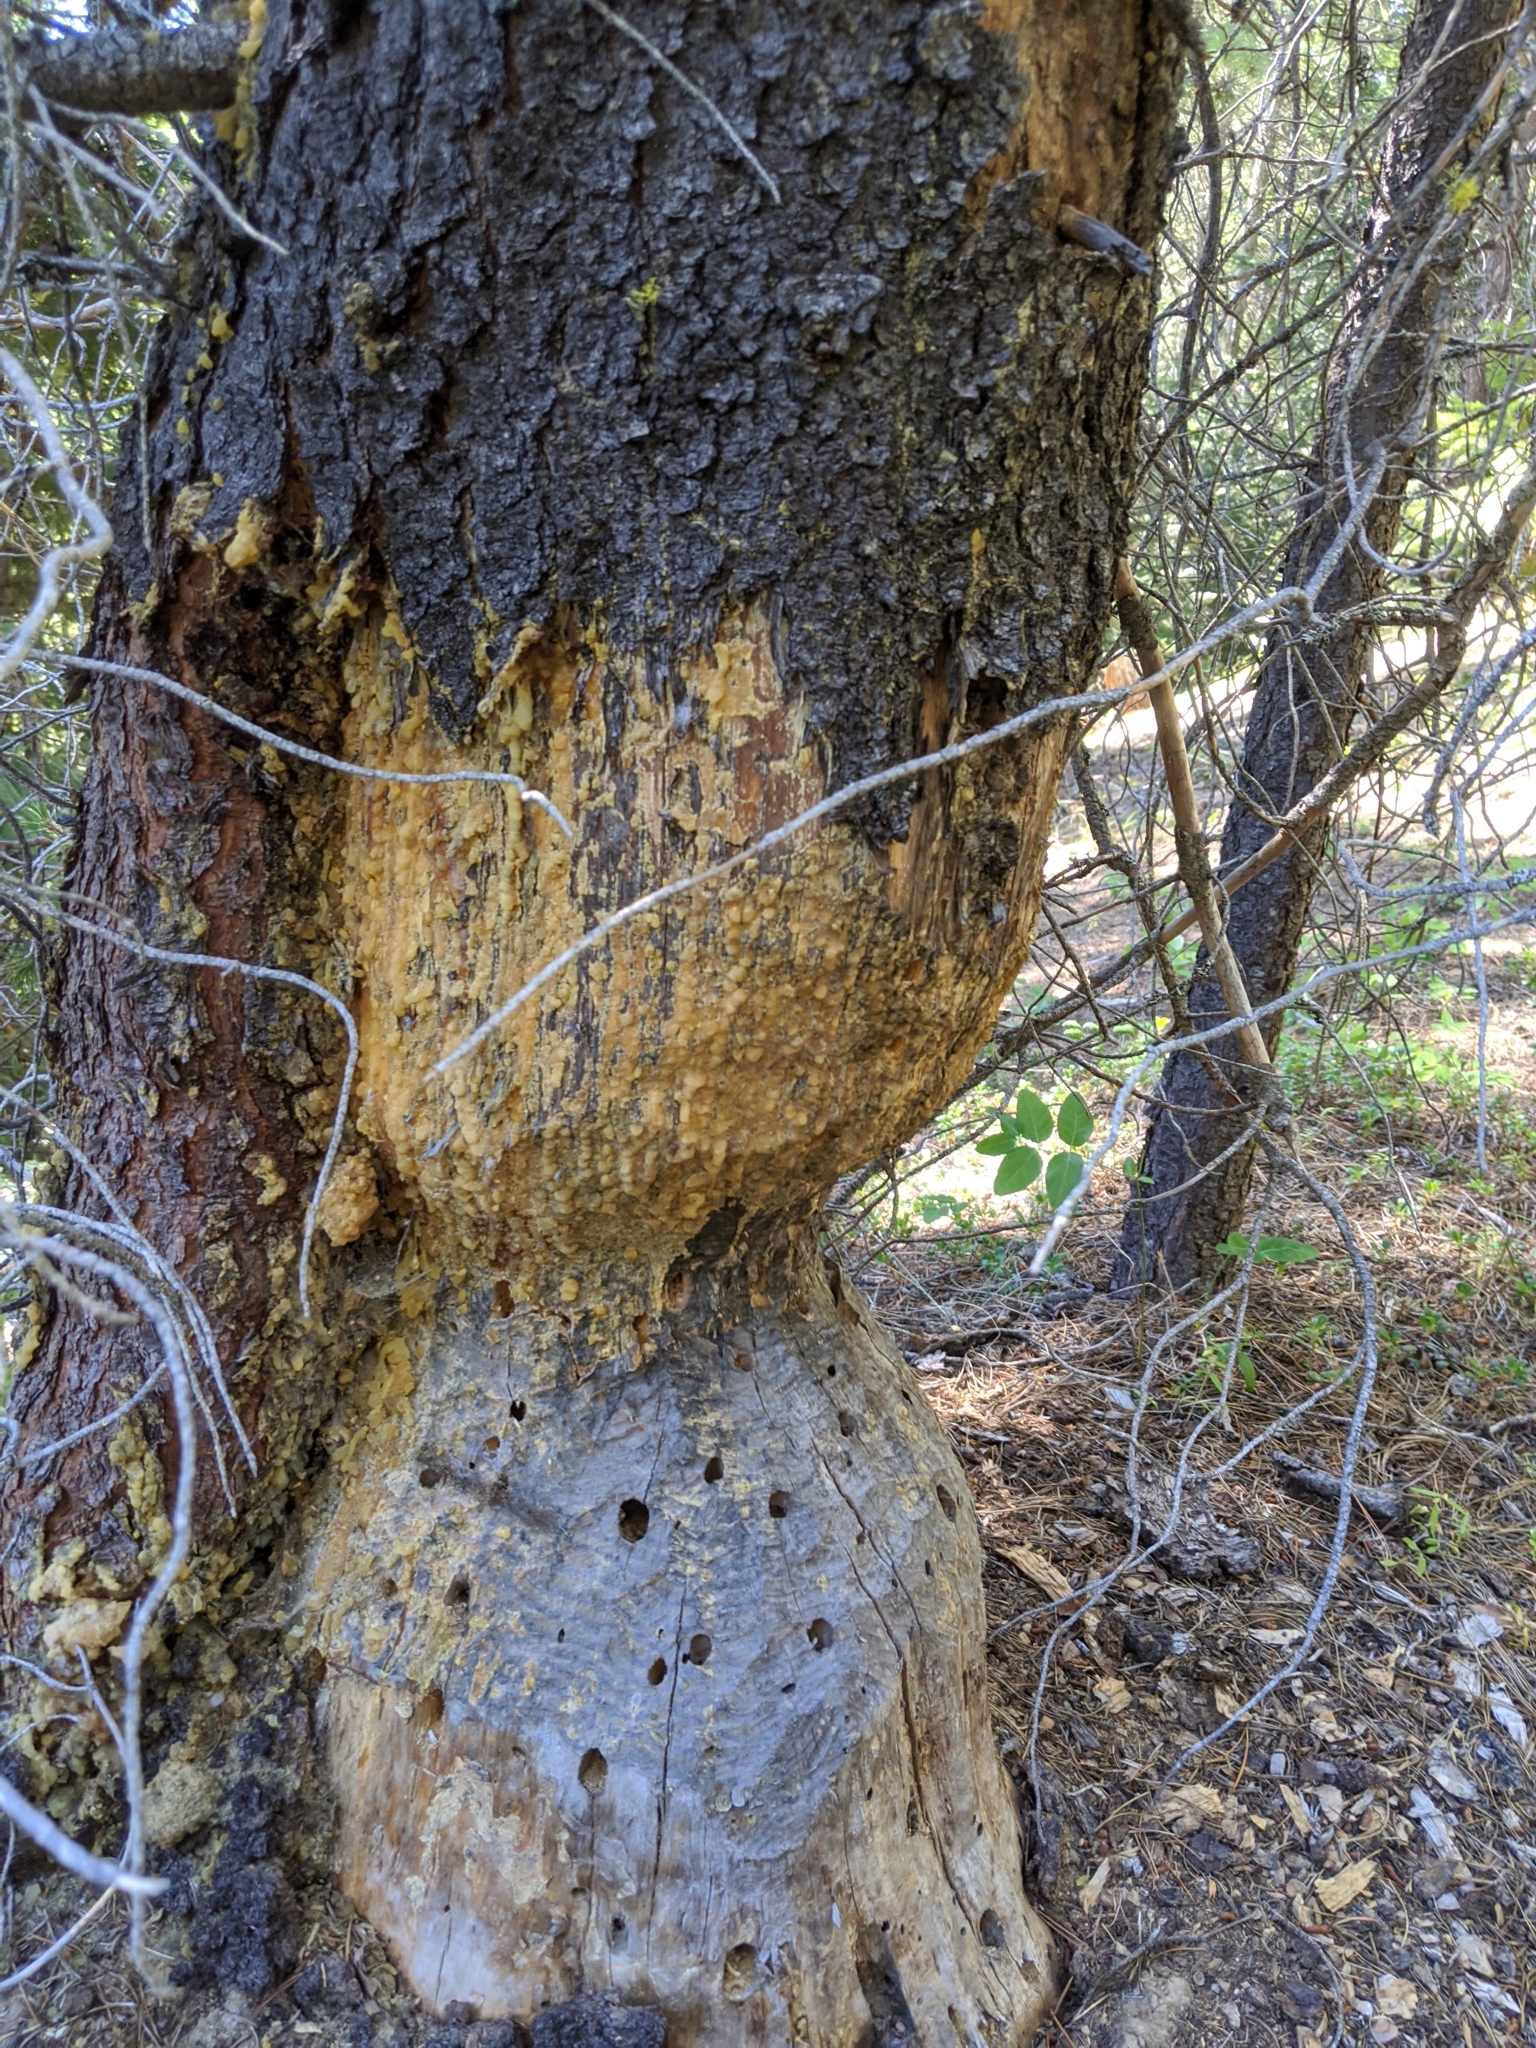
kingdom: Animalia
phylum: Chordata
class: Mammalia
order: Rodentia
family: Castoridae
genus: Castor
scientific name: Castor canadensis
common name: American beaver
